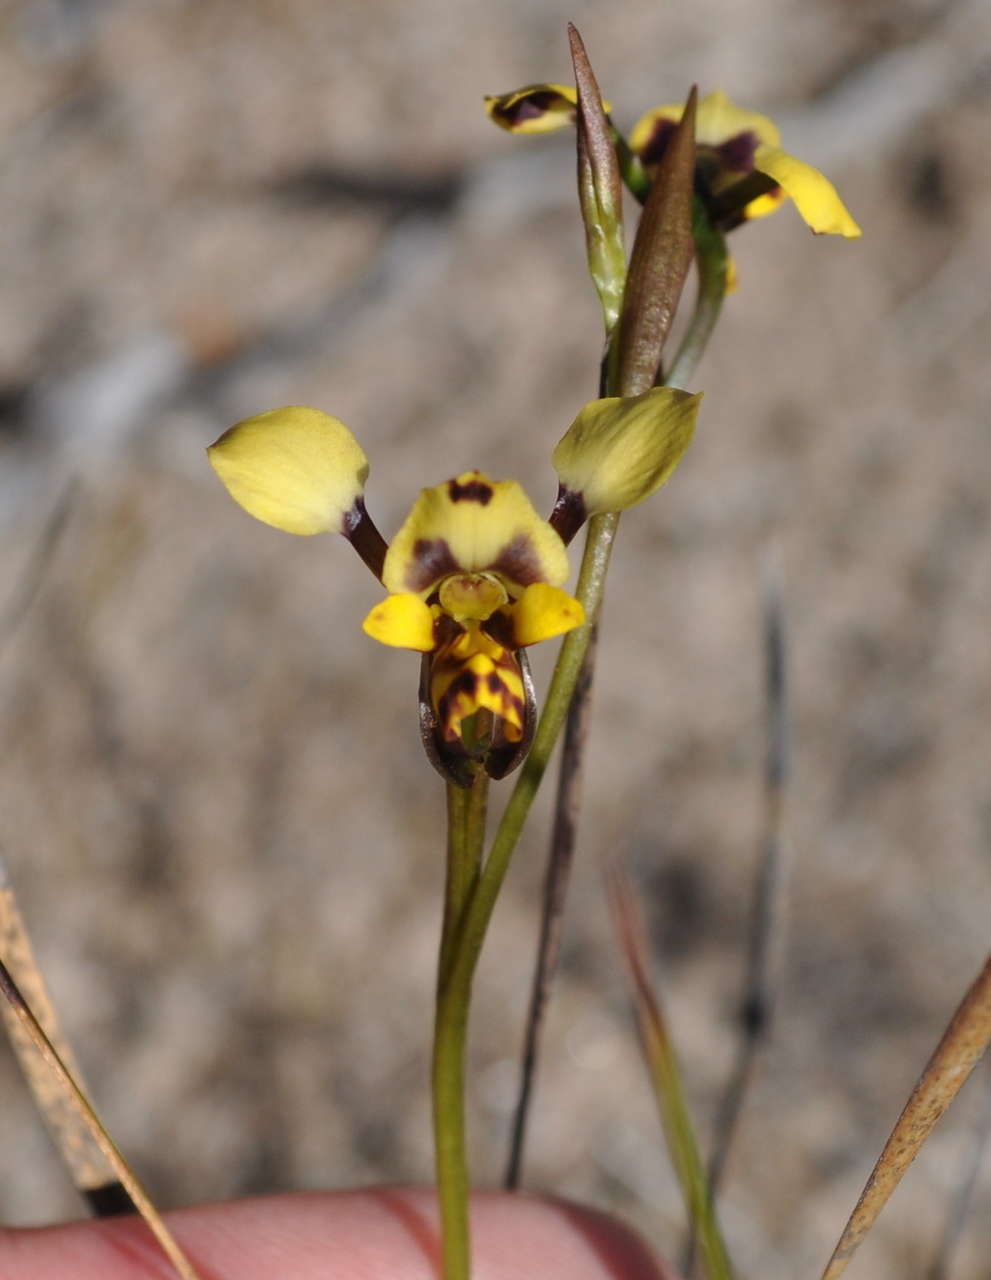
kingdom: Plantae
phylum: Tracheophyta
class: Liliopsida
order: Asparagales
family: Orchidaceae
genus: Diuris
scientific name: Diuris pardina
